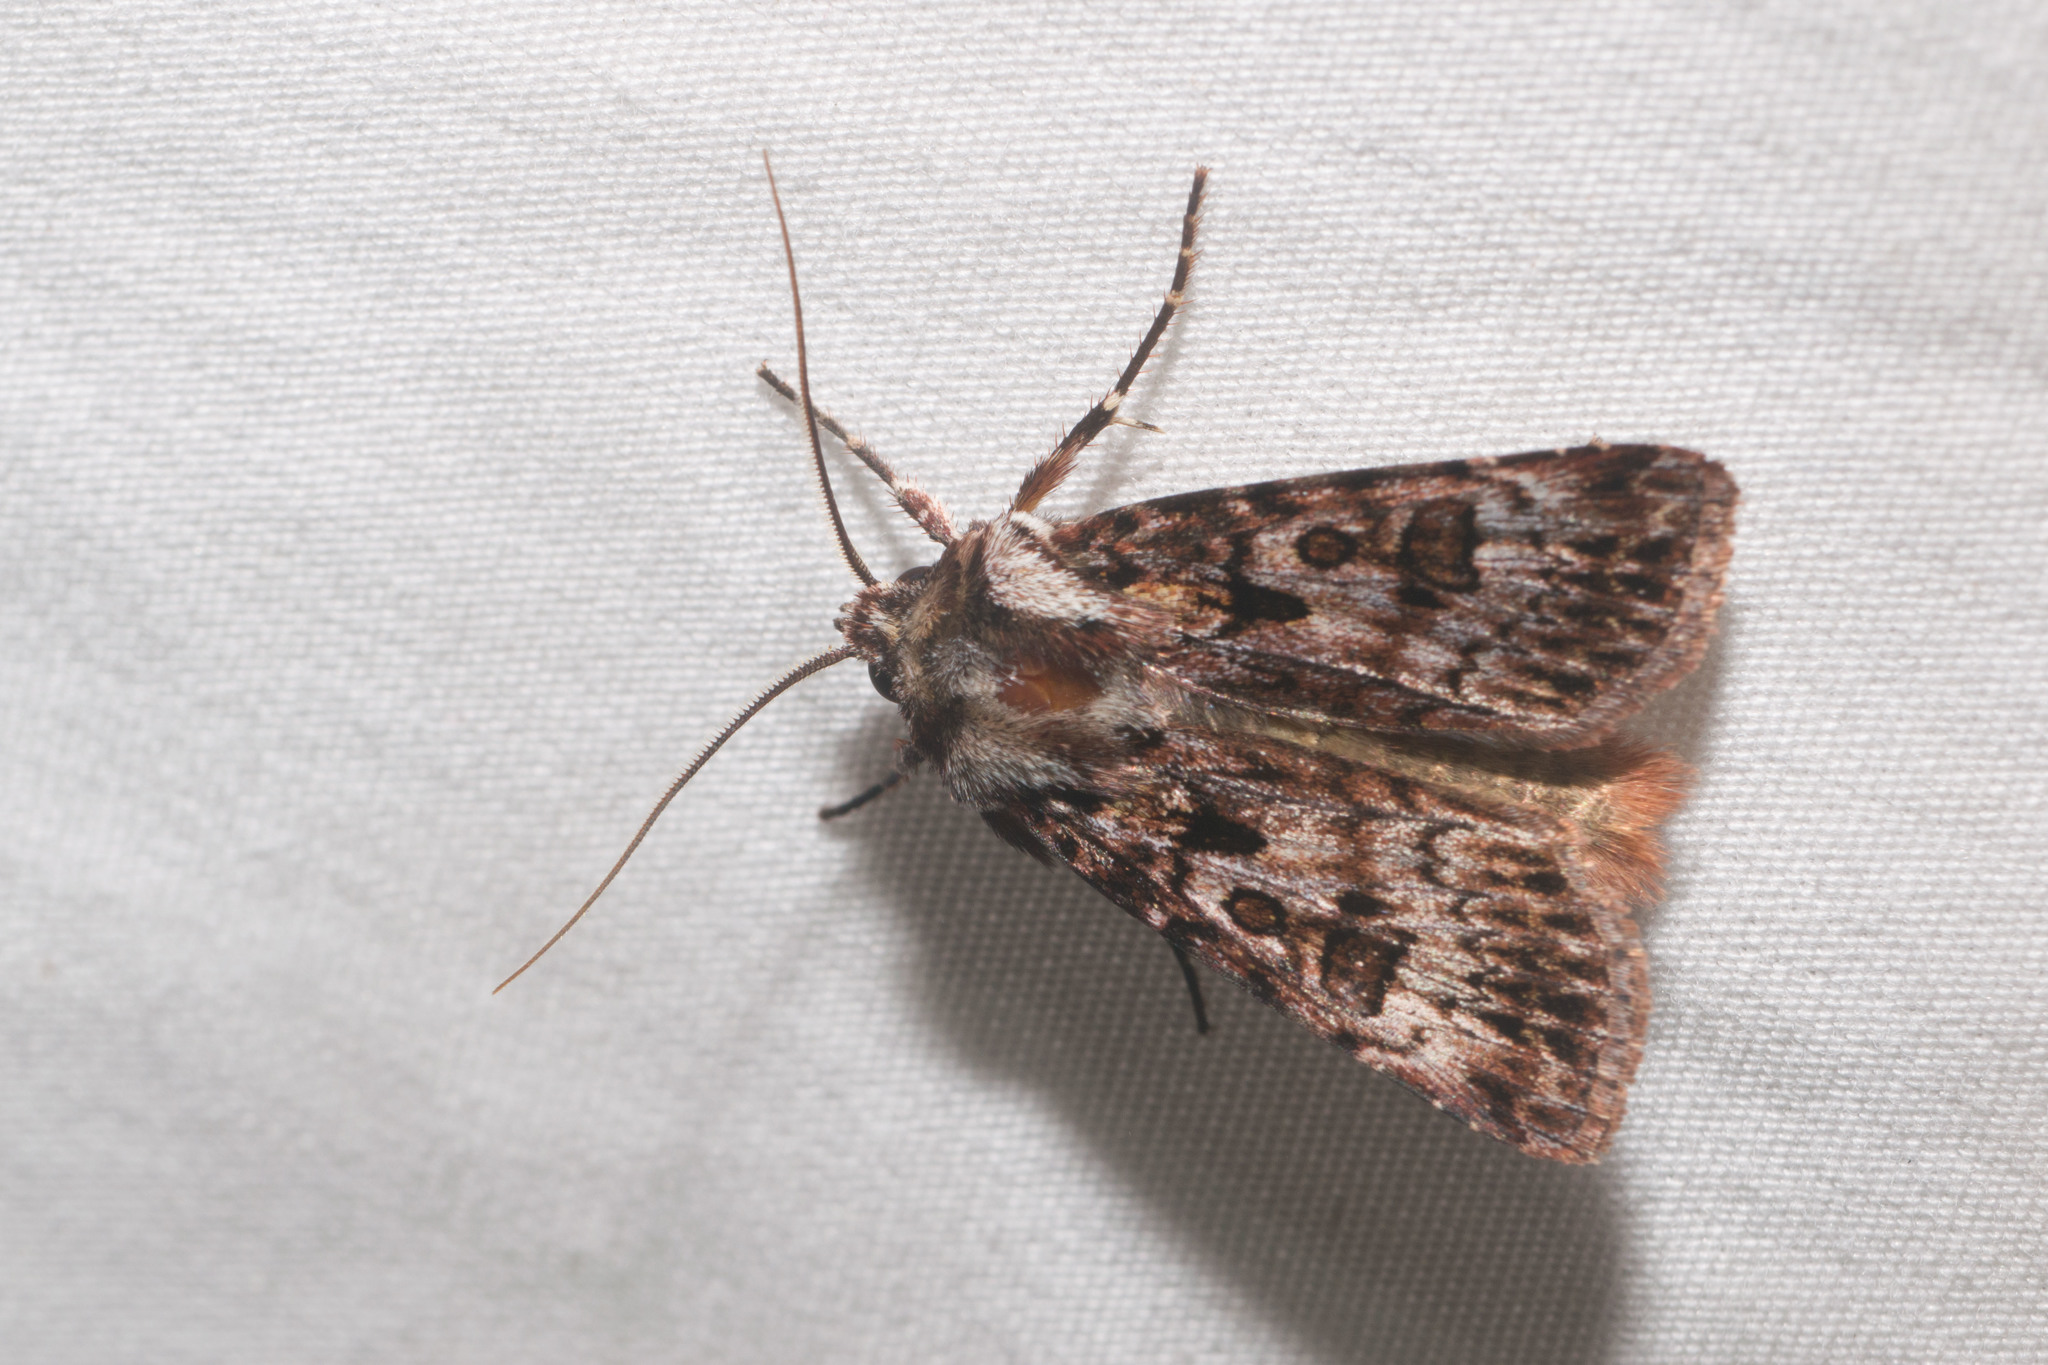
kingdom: Animalia
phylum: Arthropoda
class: Insecta
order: Lepidoptera
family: Noctuidae
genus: Agrotis
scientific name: Agrotis charmocrita
